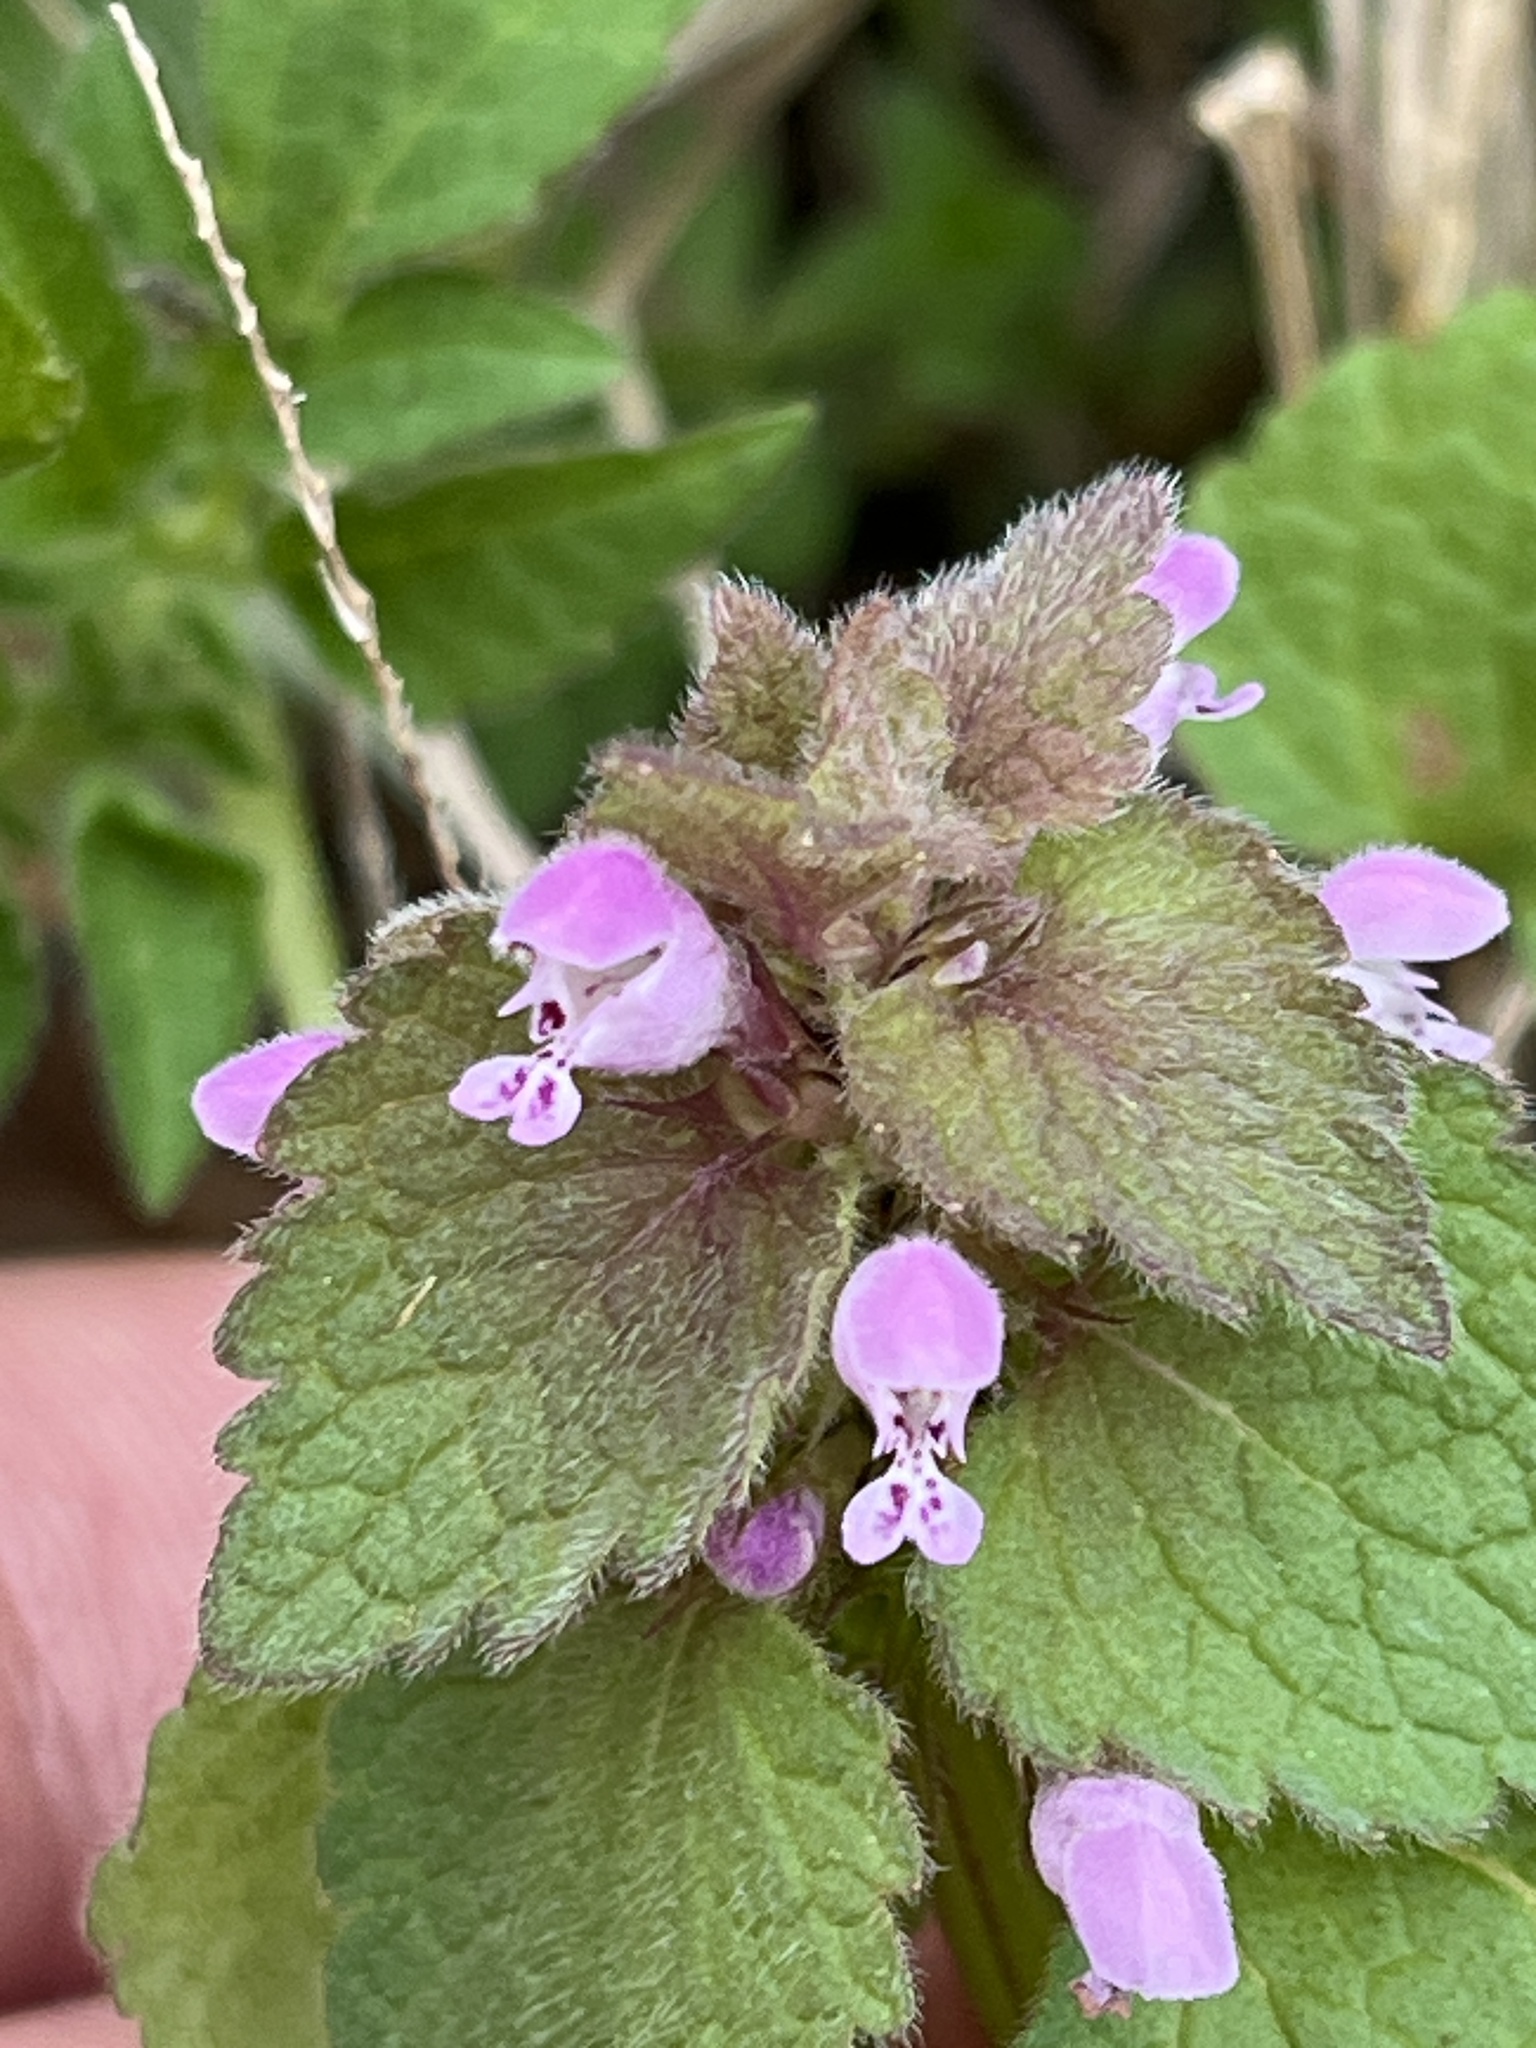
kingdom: Plantae
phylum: Tracheophyta
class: Magnoliopsida
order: Lamiales
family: Lamiaceae
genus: Lamium
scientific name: Lamium purpureum
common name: Red dead-nettle
